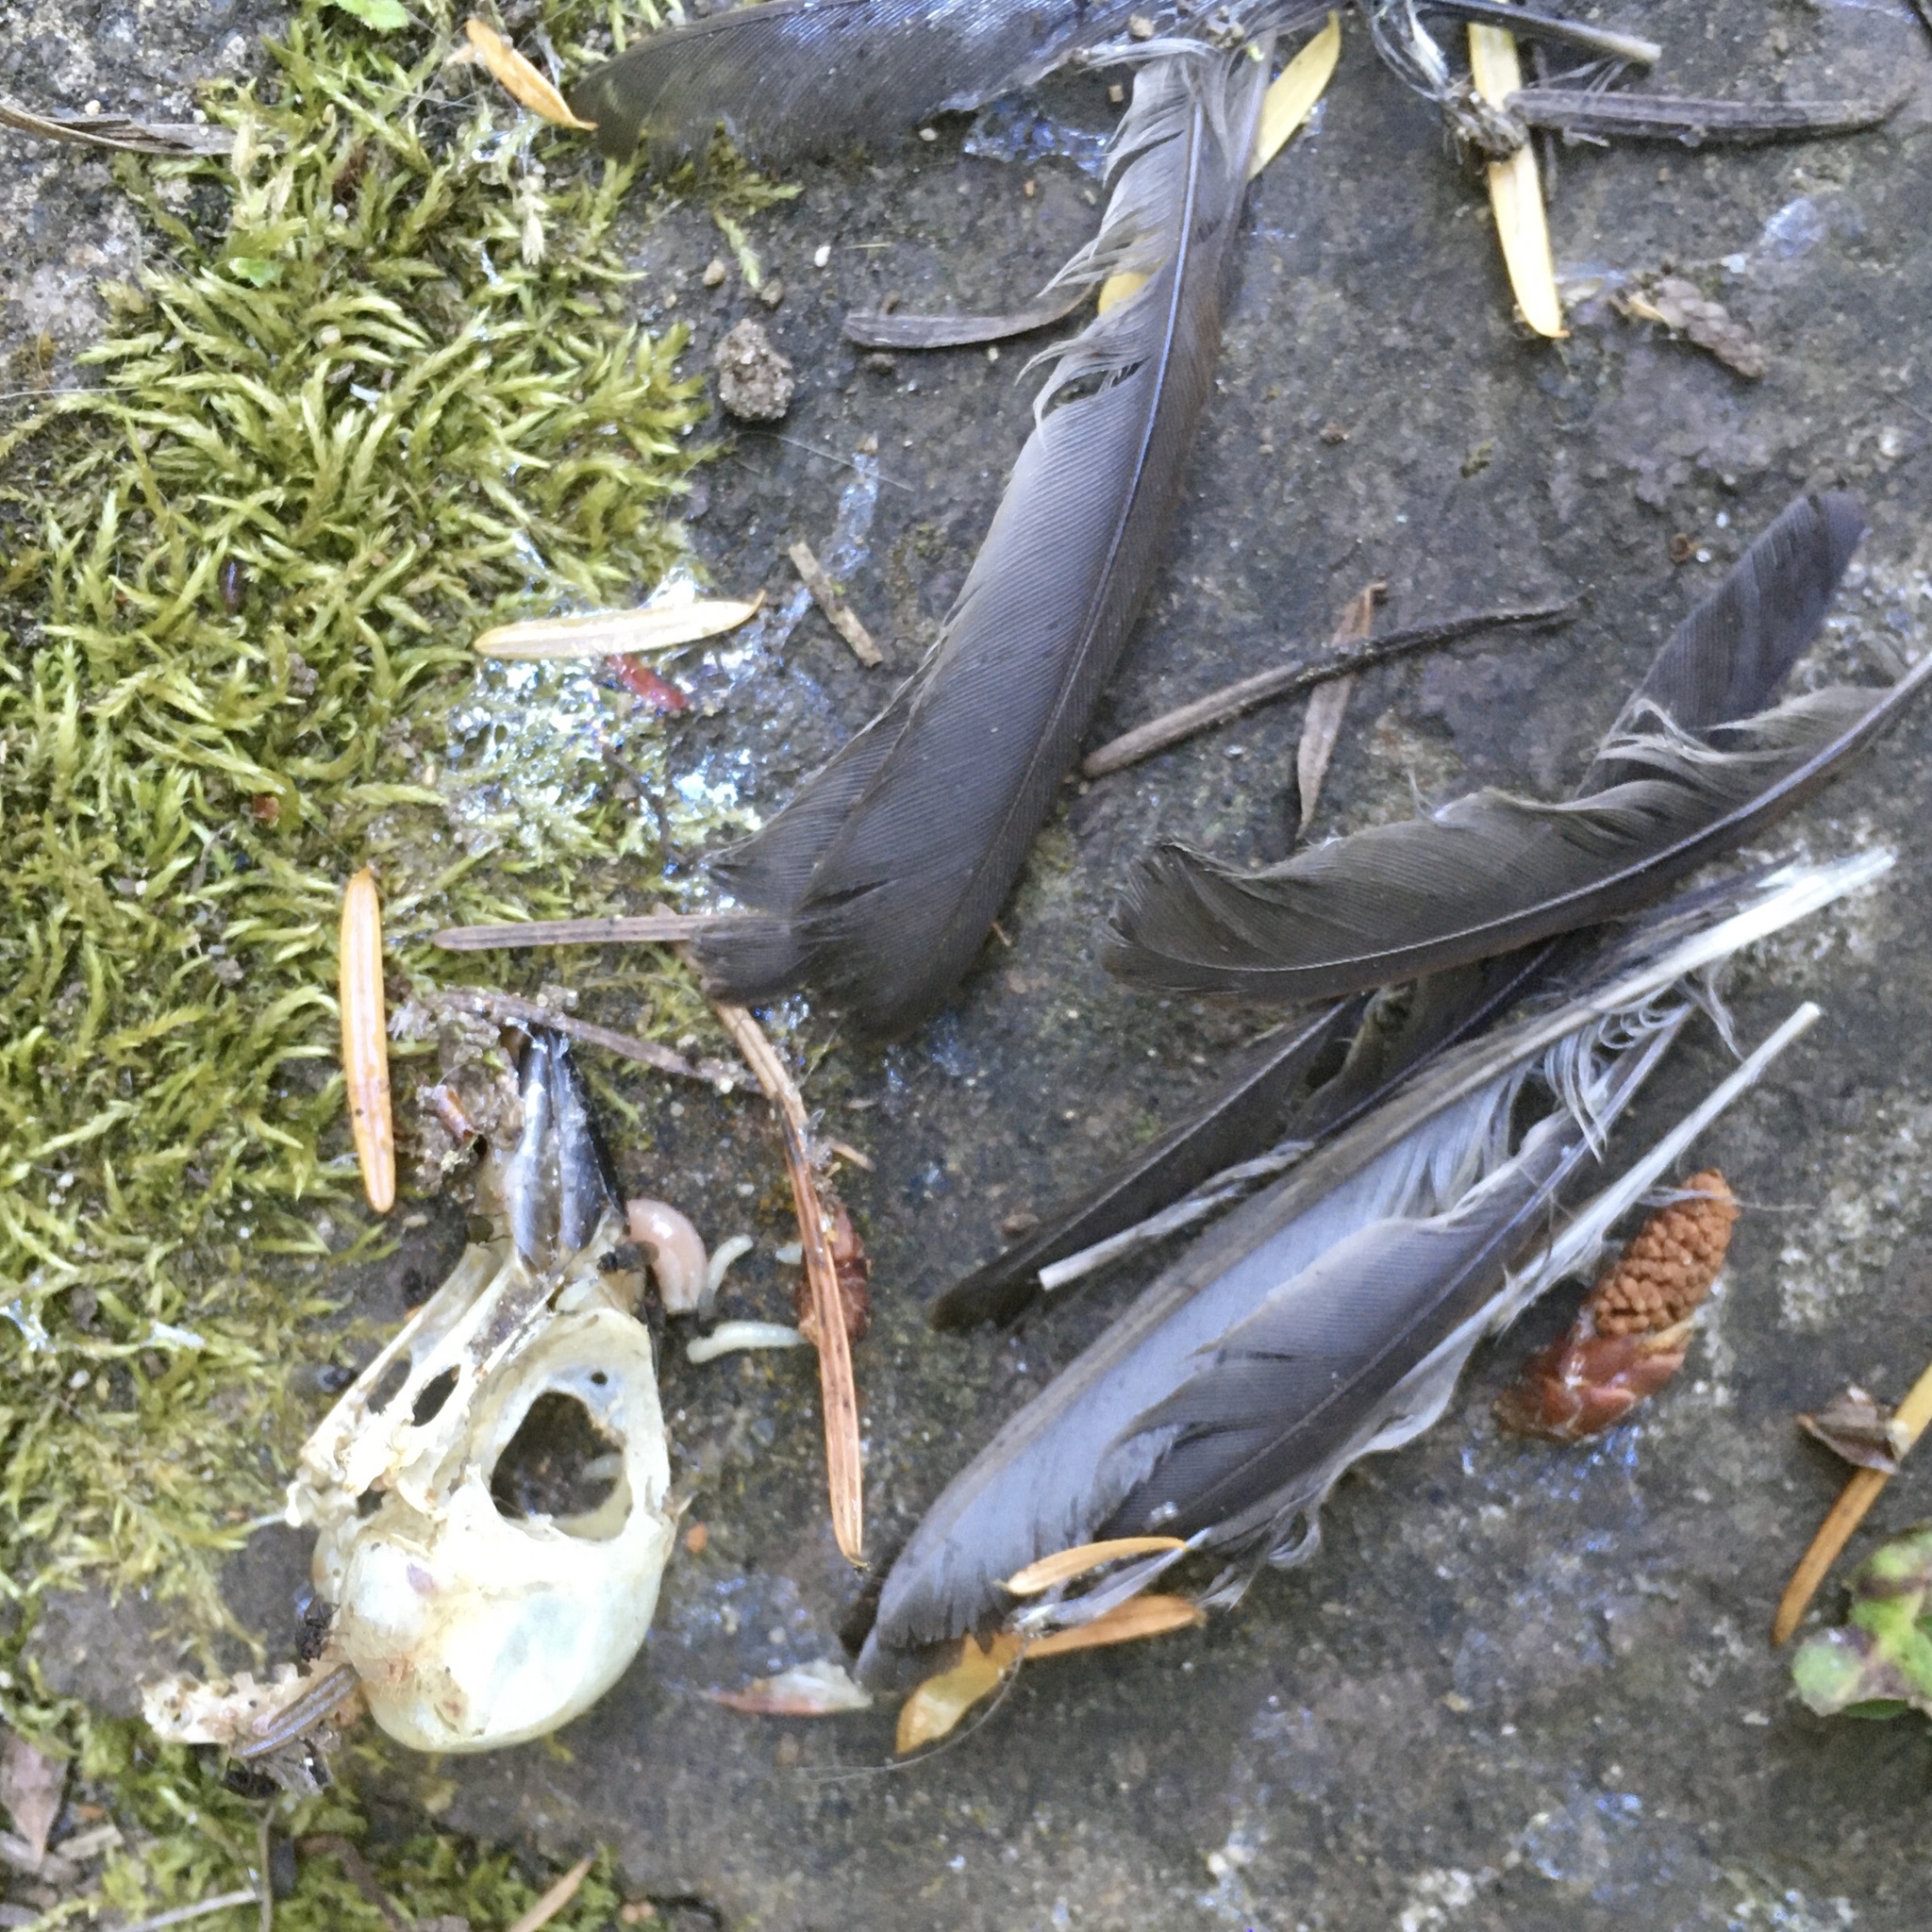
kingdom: Animalia
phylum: Chordata
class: Aves
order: Passeriformes
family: Passerellidae
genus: Melospiza
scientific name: Melospiza melodia
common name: Song sparrow
